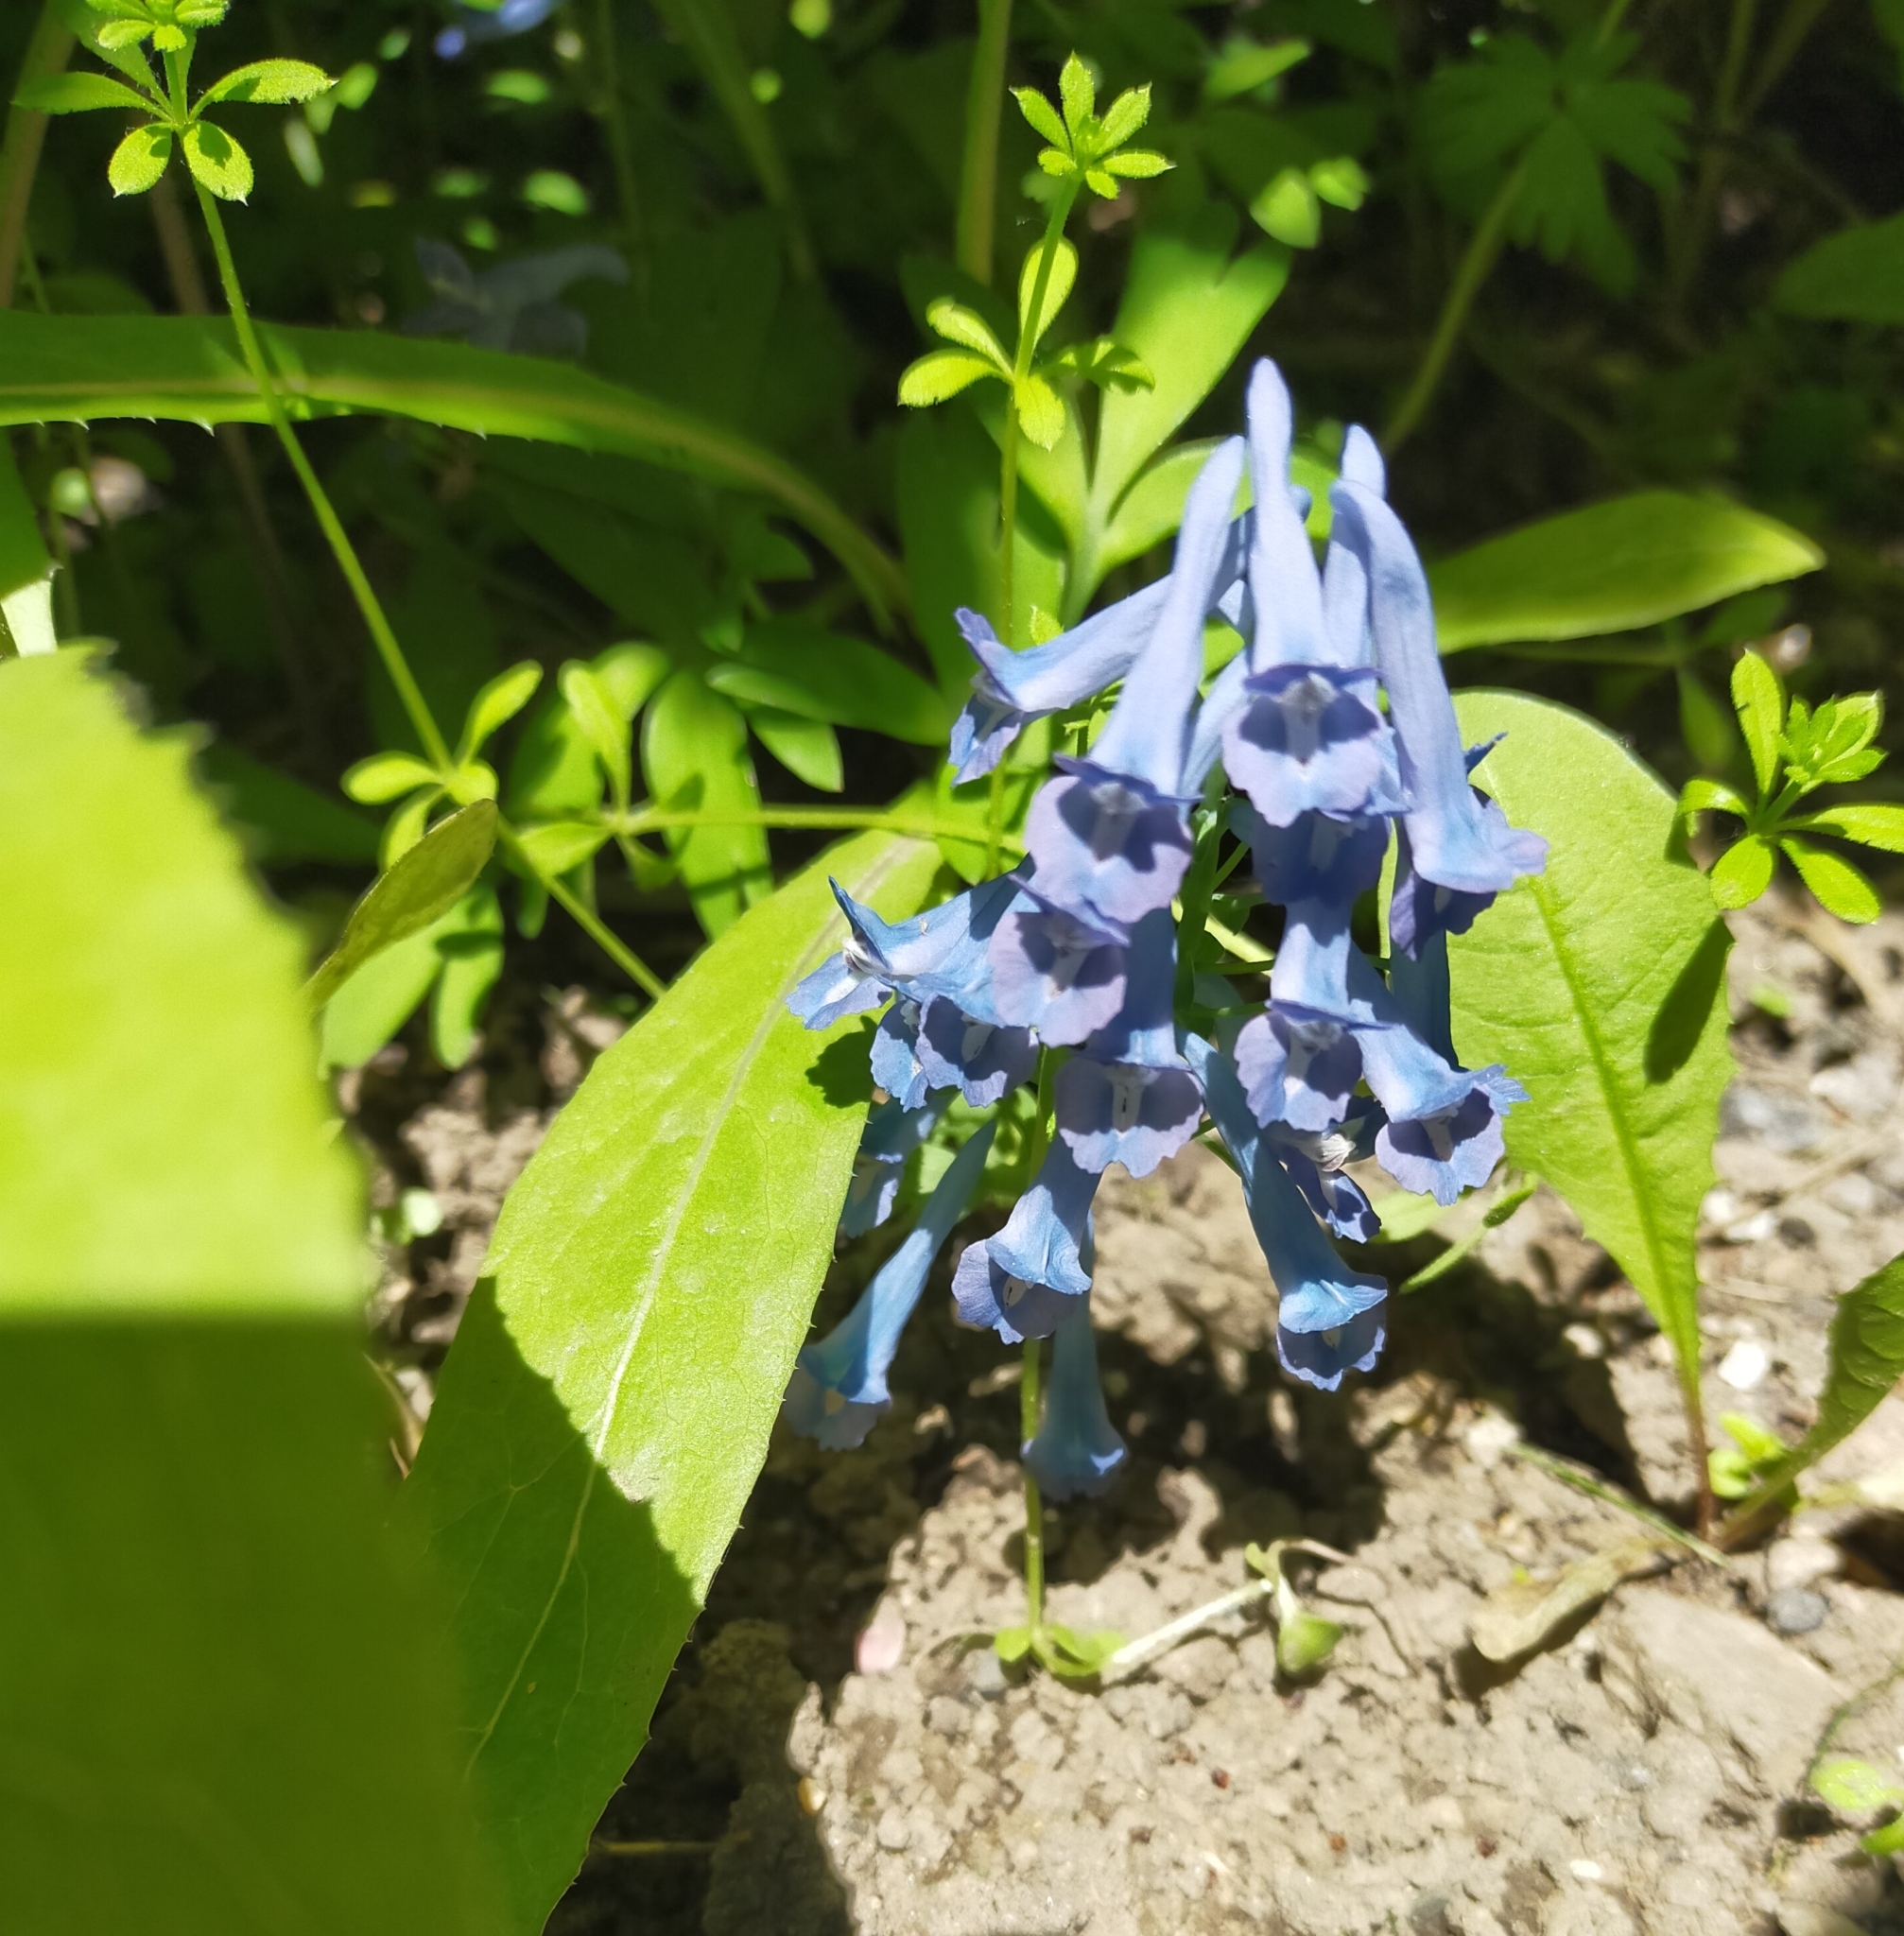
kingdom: Plantae
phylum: Tracheophyta
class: Magnoliopsida
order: Ranunculales
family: Papaveraceae
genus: Corydalis
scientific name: Corydalis turtschaninovii
